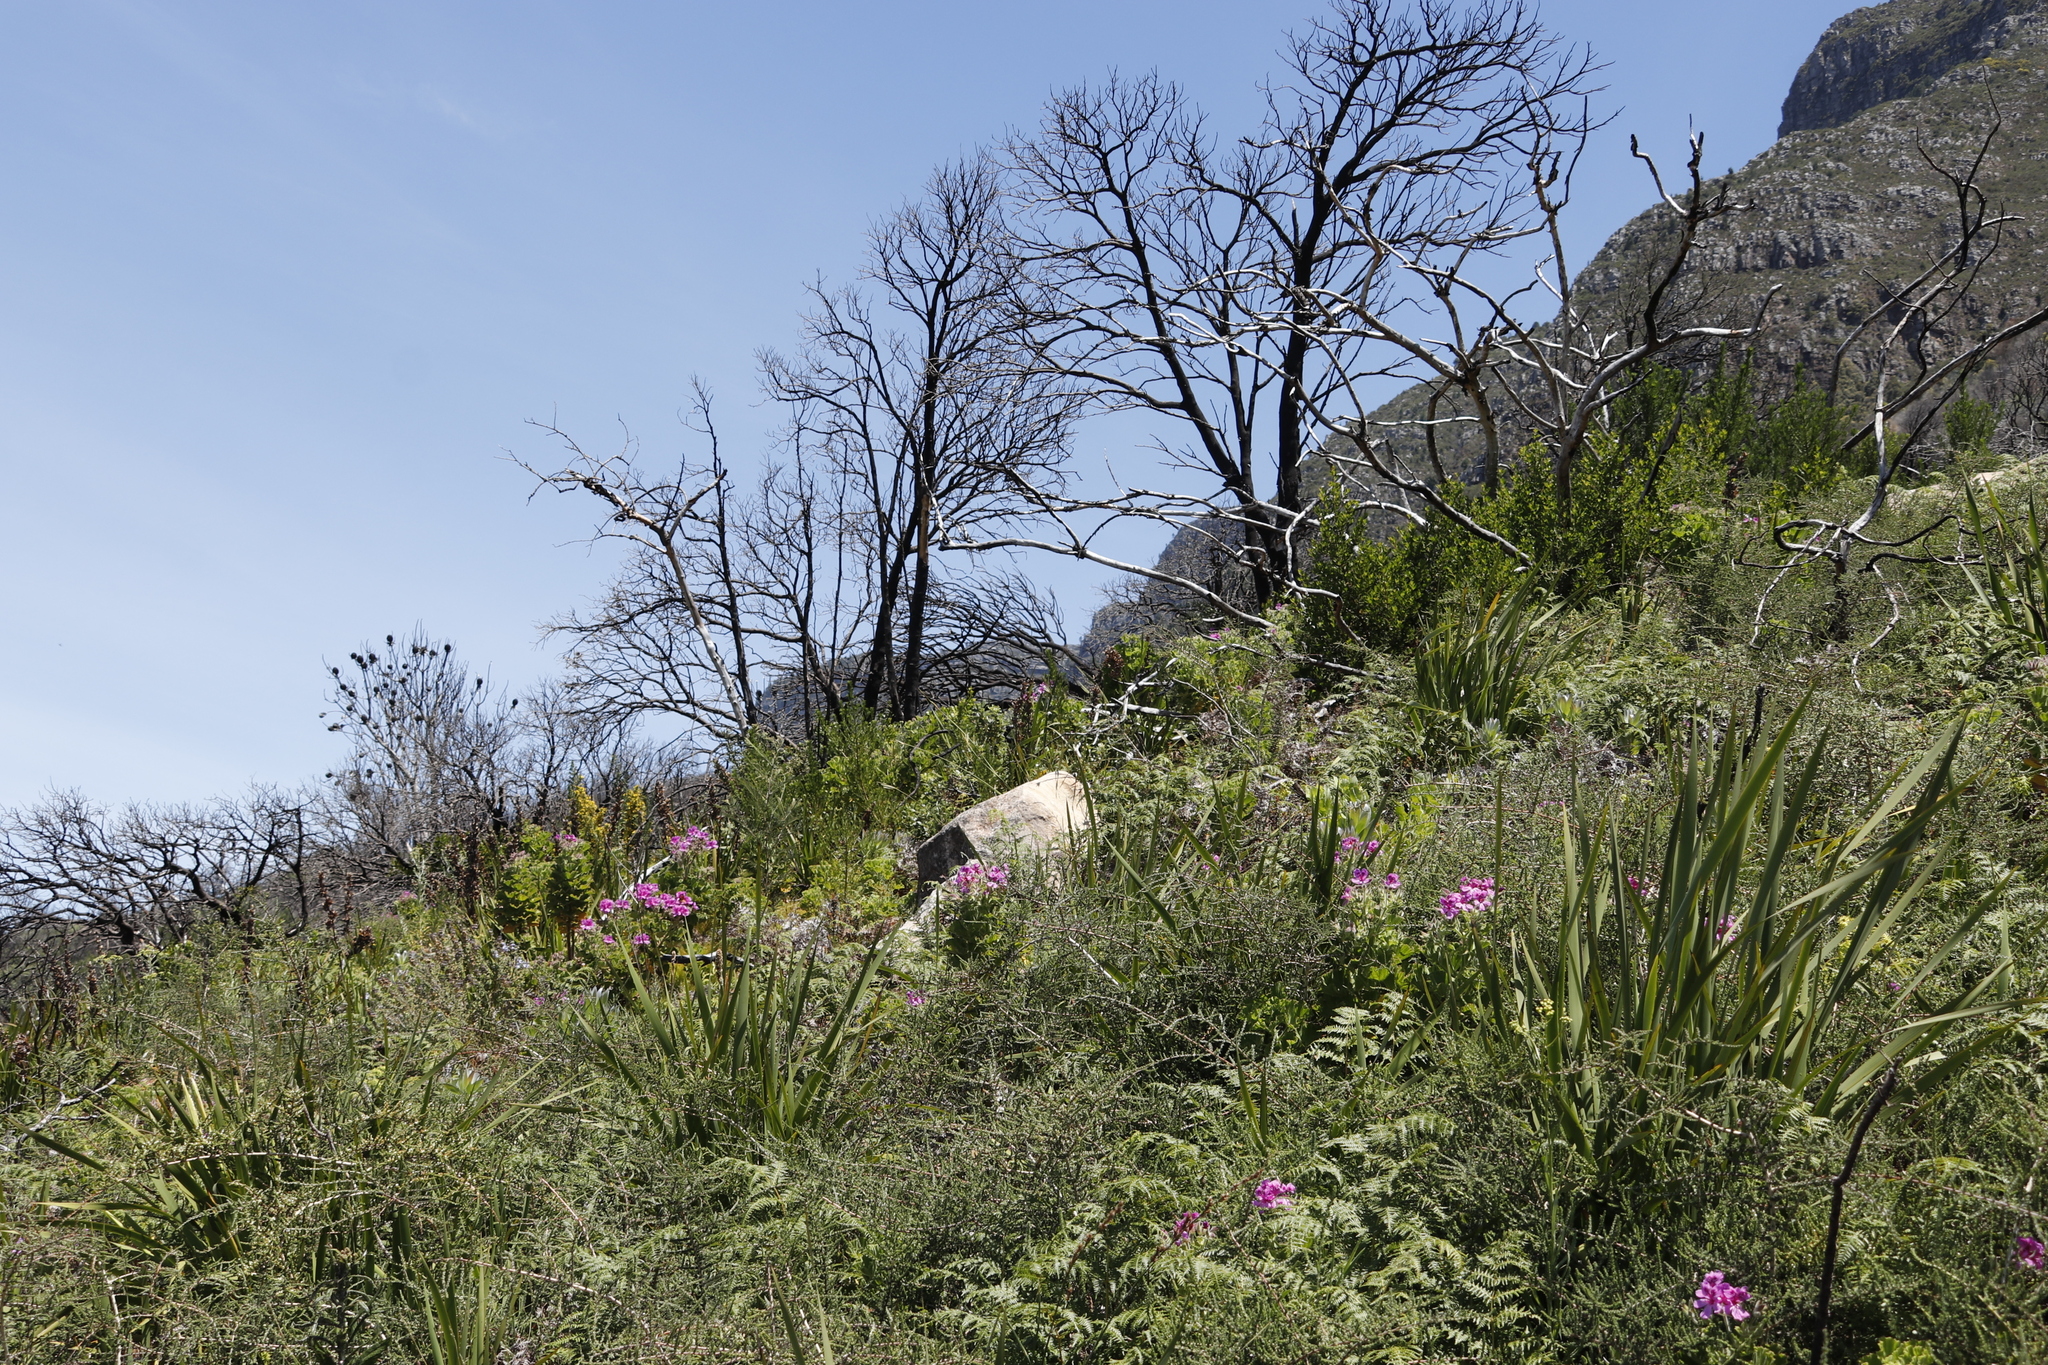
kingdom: Plantae
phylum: Tracheophyta
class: Magnoliopsida
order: Sapindales
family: Anacardiaceae
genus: Searsia
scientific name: Searsia lucida
